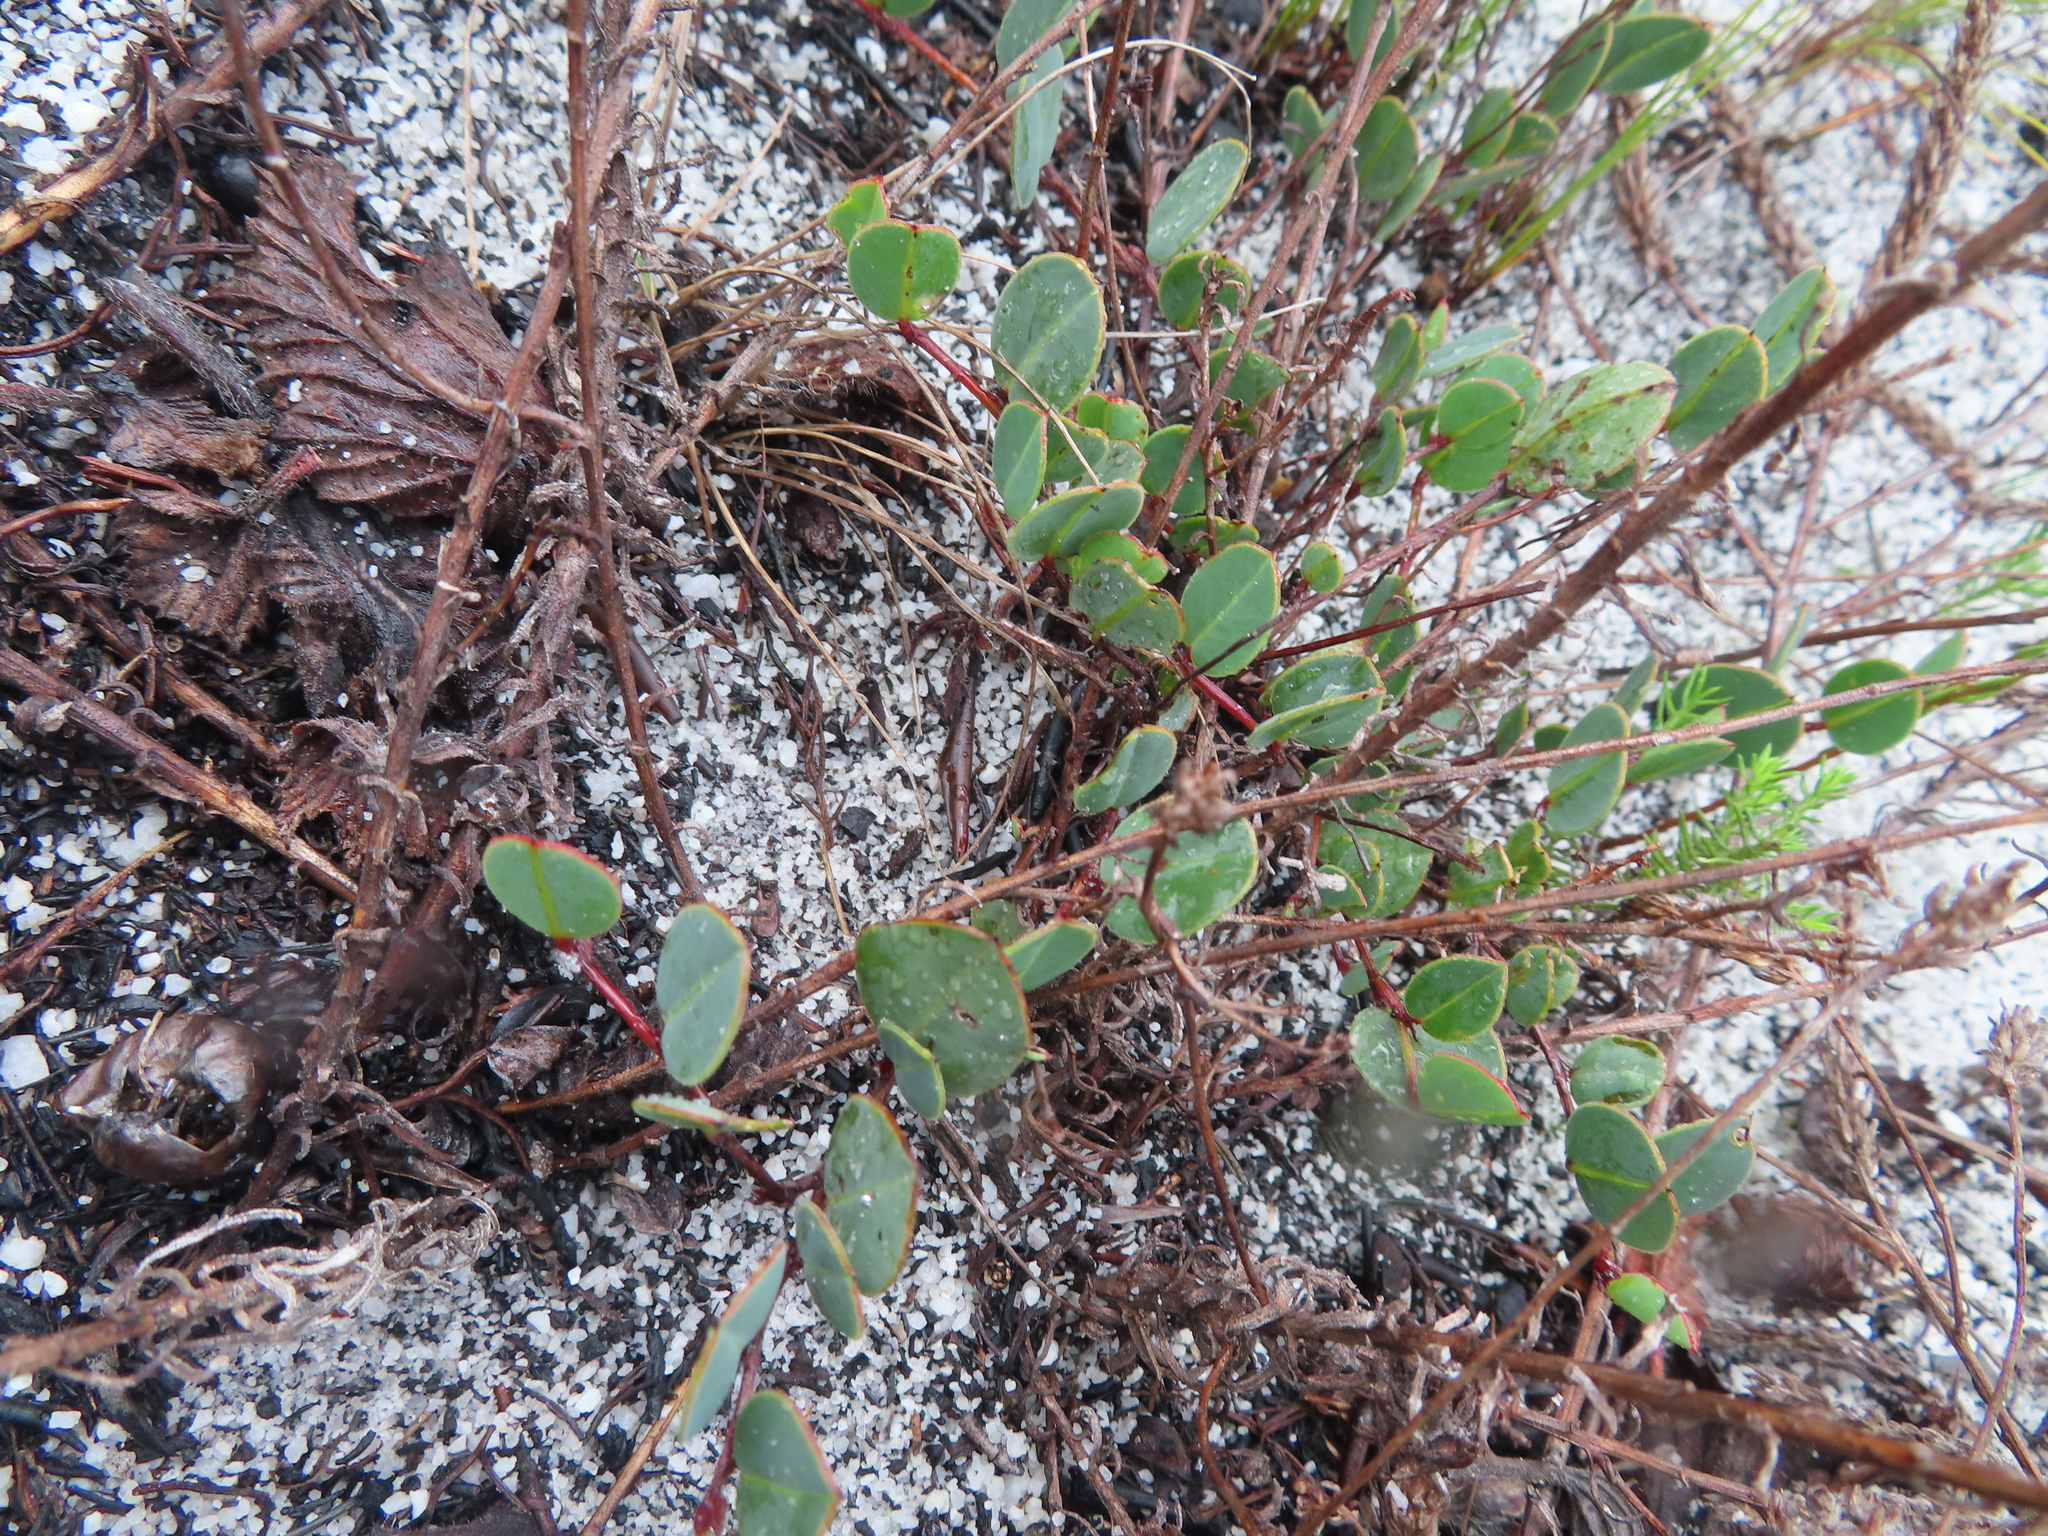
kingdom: Plantae
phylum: Tracheophyta
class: Magnoliopsida
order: Fabales
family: Fabaceae
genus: Indigofera
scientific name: Indigofera ovata
